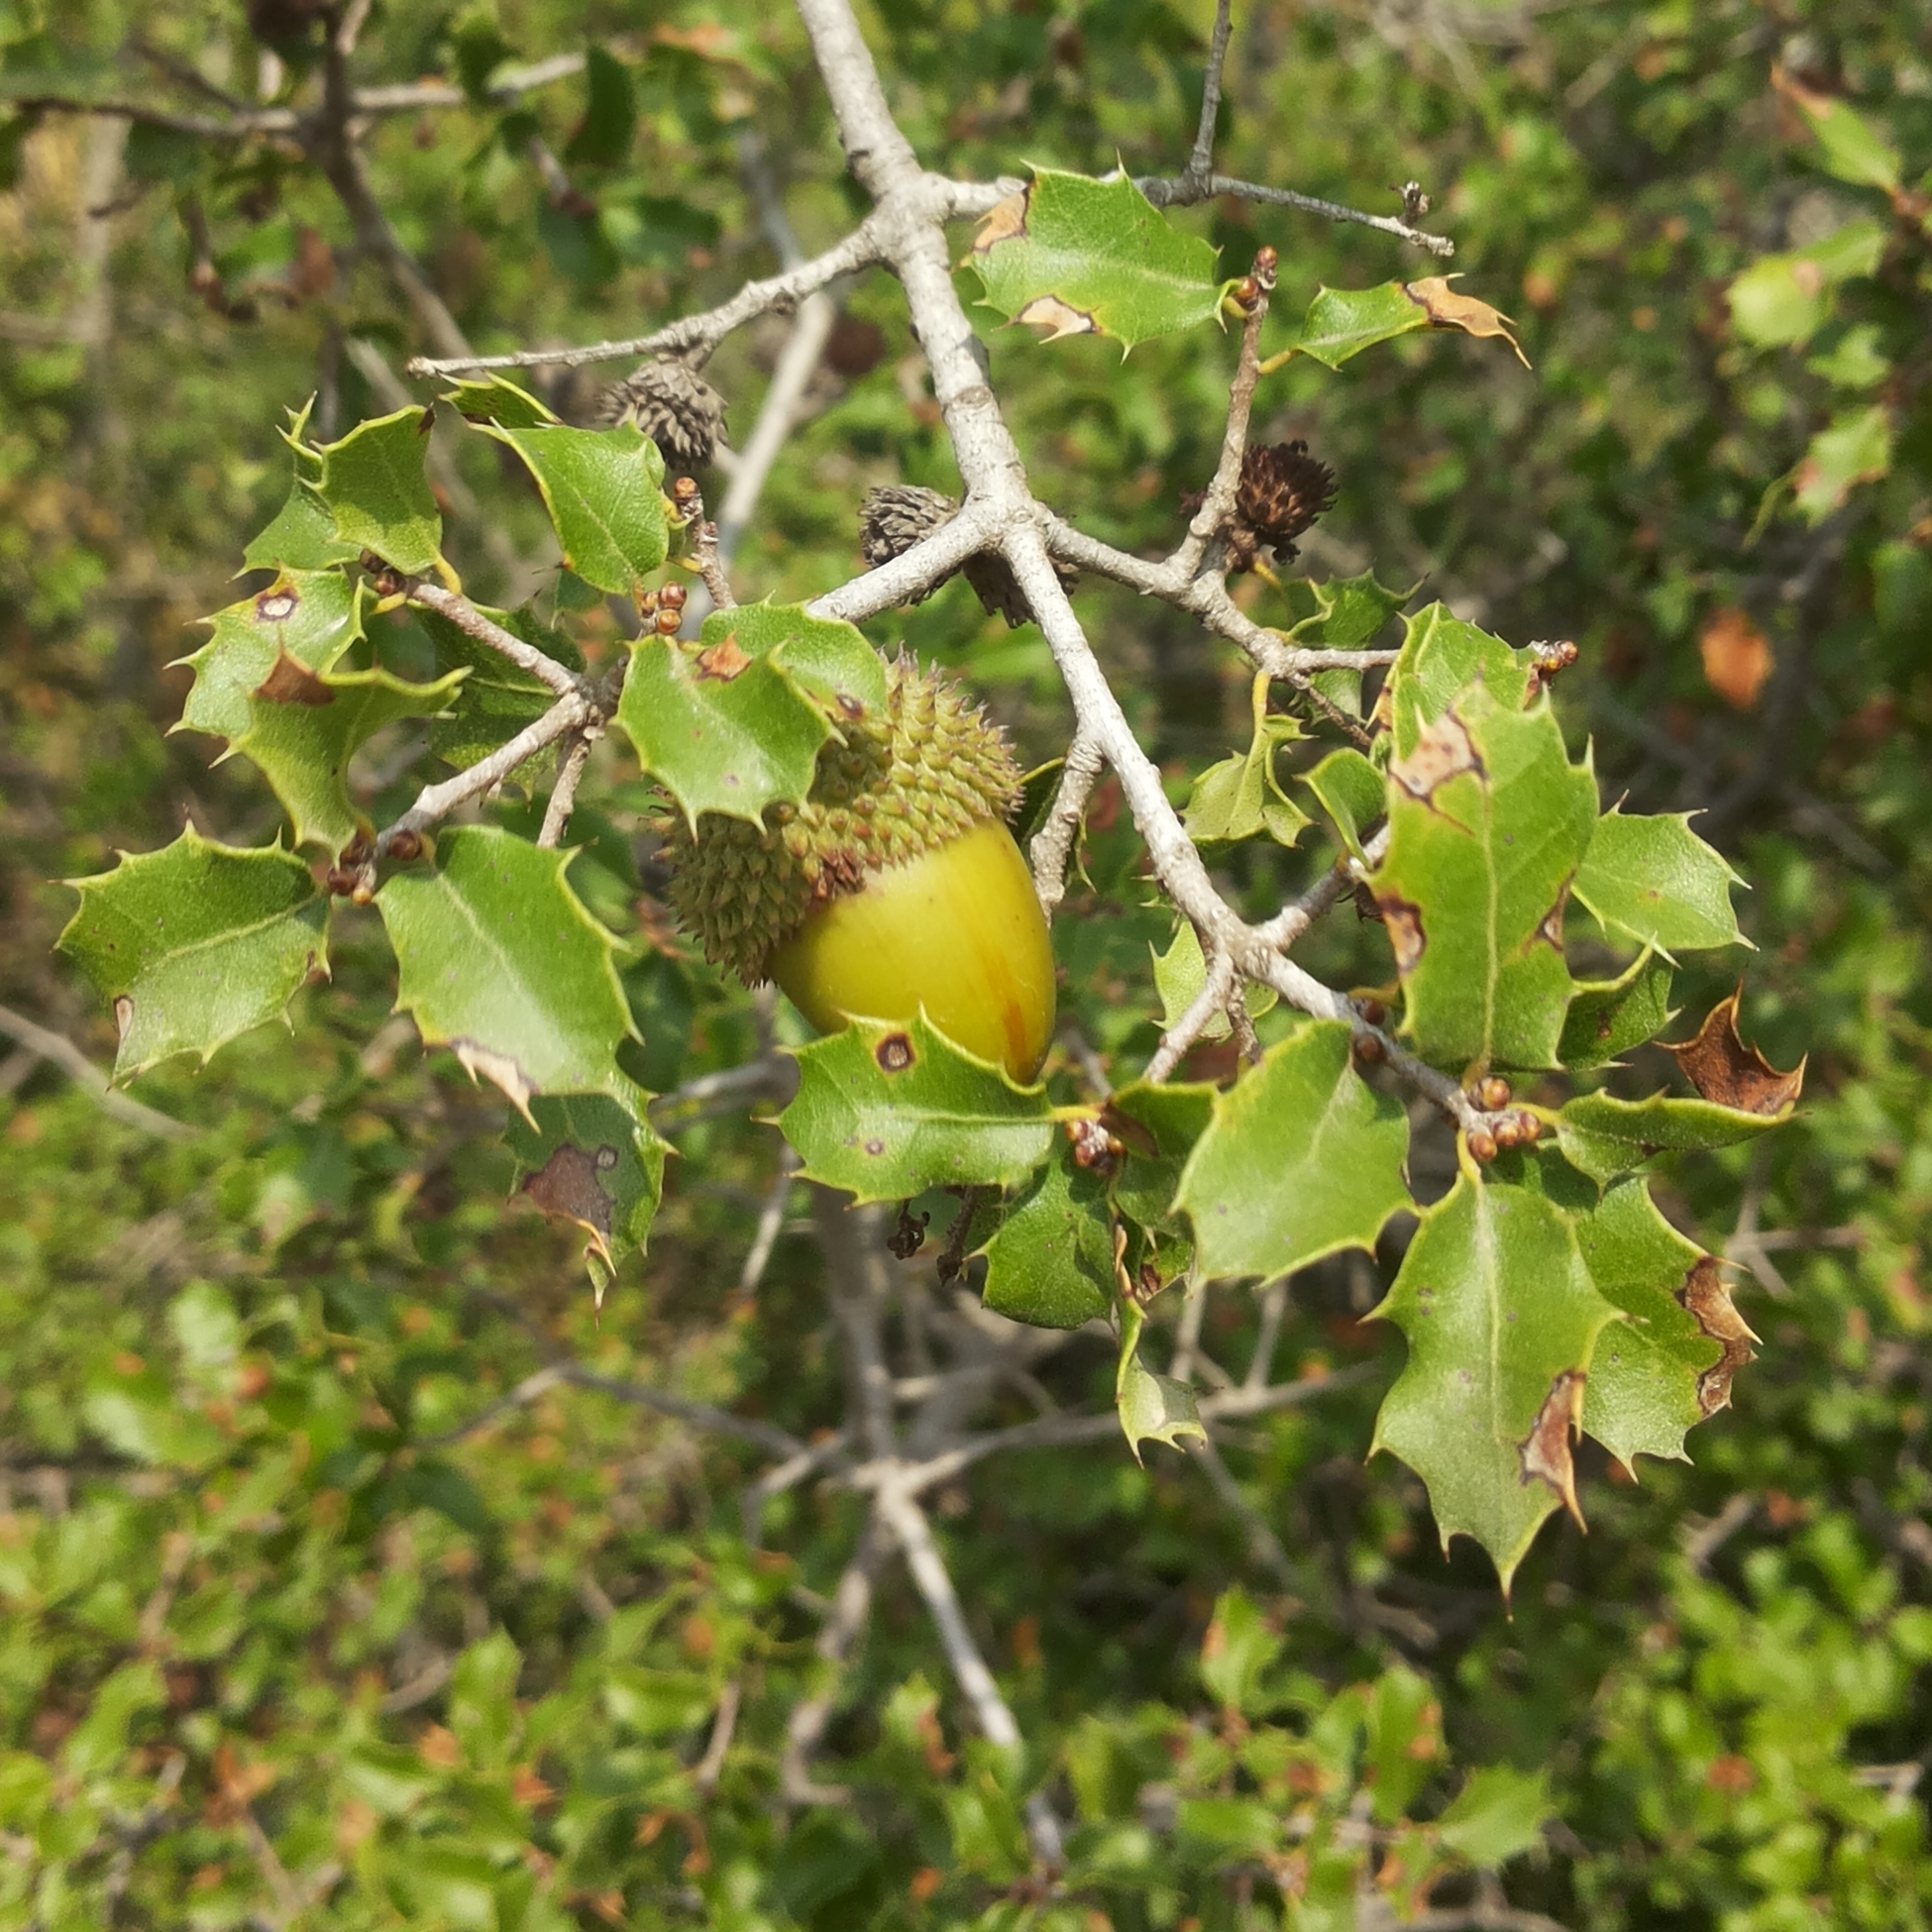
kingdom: Plantae
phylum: Tracheophyta
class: Magnoliopsida
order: Fagales
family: Fagaceae
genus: Quercus
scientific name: Quercus coccifera
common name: Kermes oak
